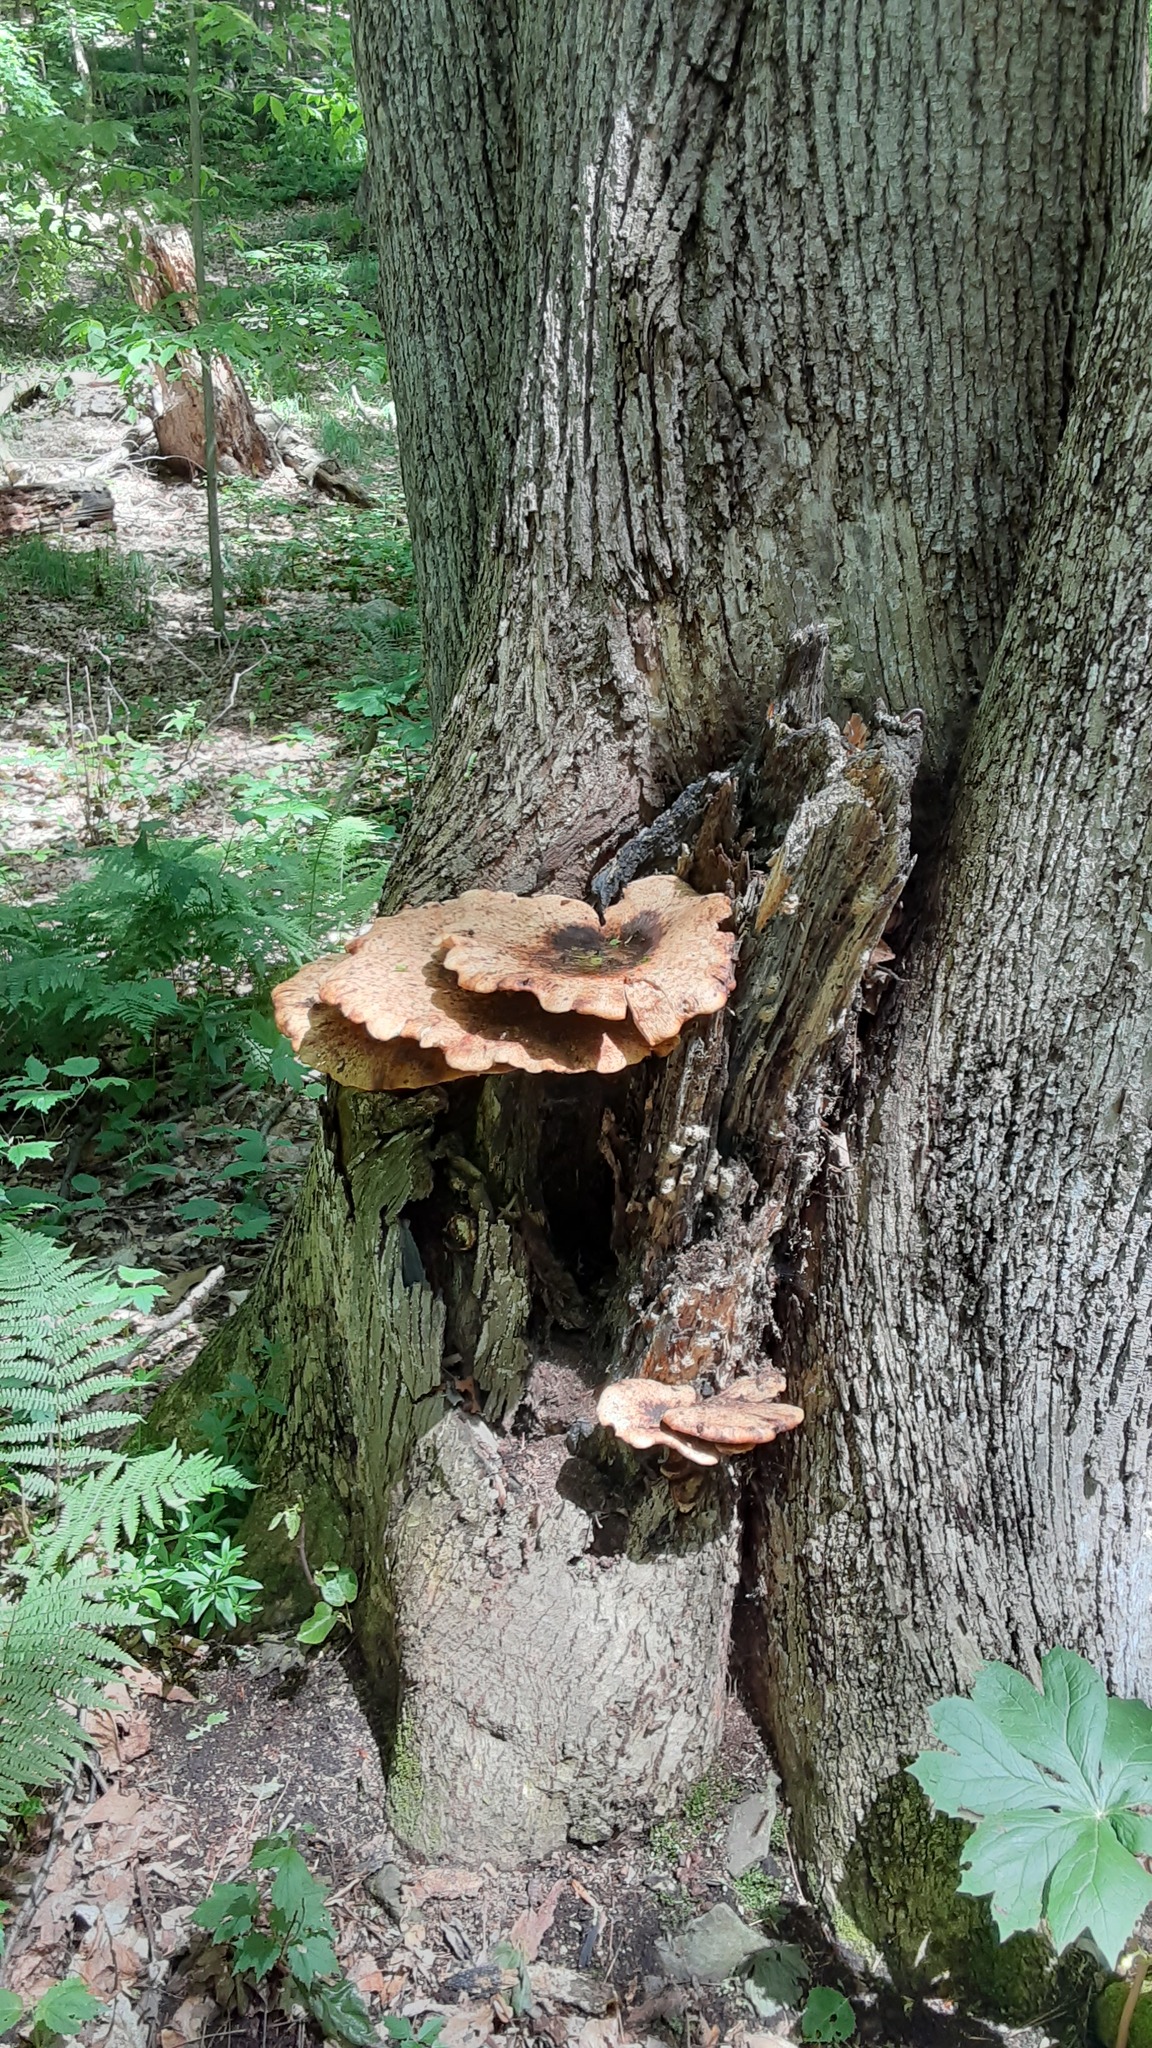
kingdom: Fungi
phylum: Basidiomycota
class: Agaricomycetes
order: Polyporales
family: Polyporaceae
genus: Cerioporus
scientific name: Cerioporus squamosus
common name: Dryad's saddle
